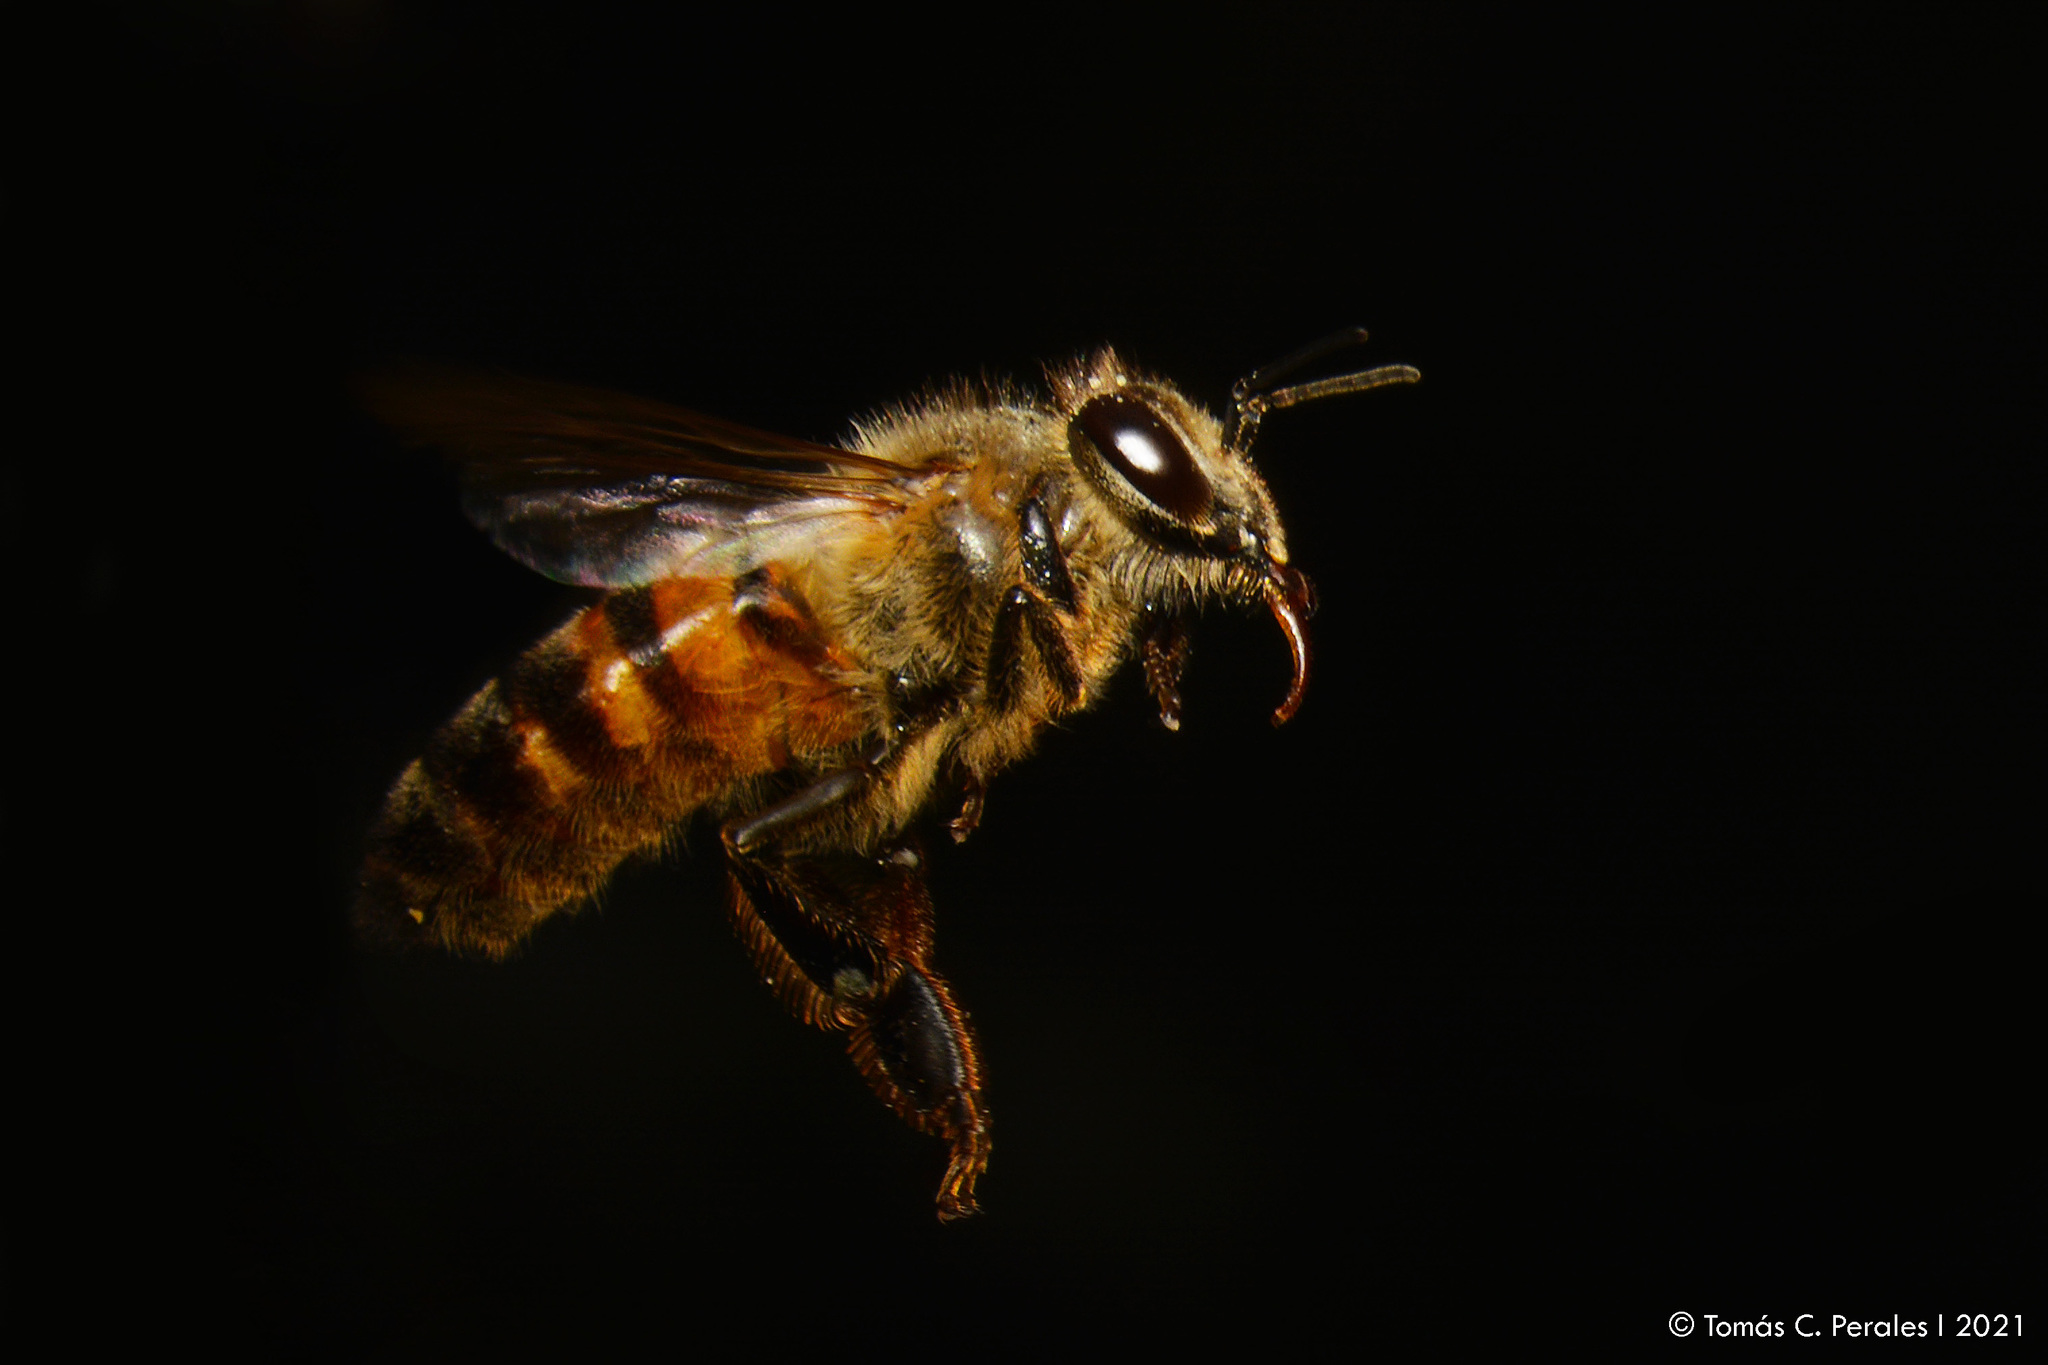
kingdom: Animalia
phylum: Arthropoda
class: Insecta
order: Hymenoptera
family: Apidae
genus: Apis
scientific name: Apis mellifera
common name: Honey bee
